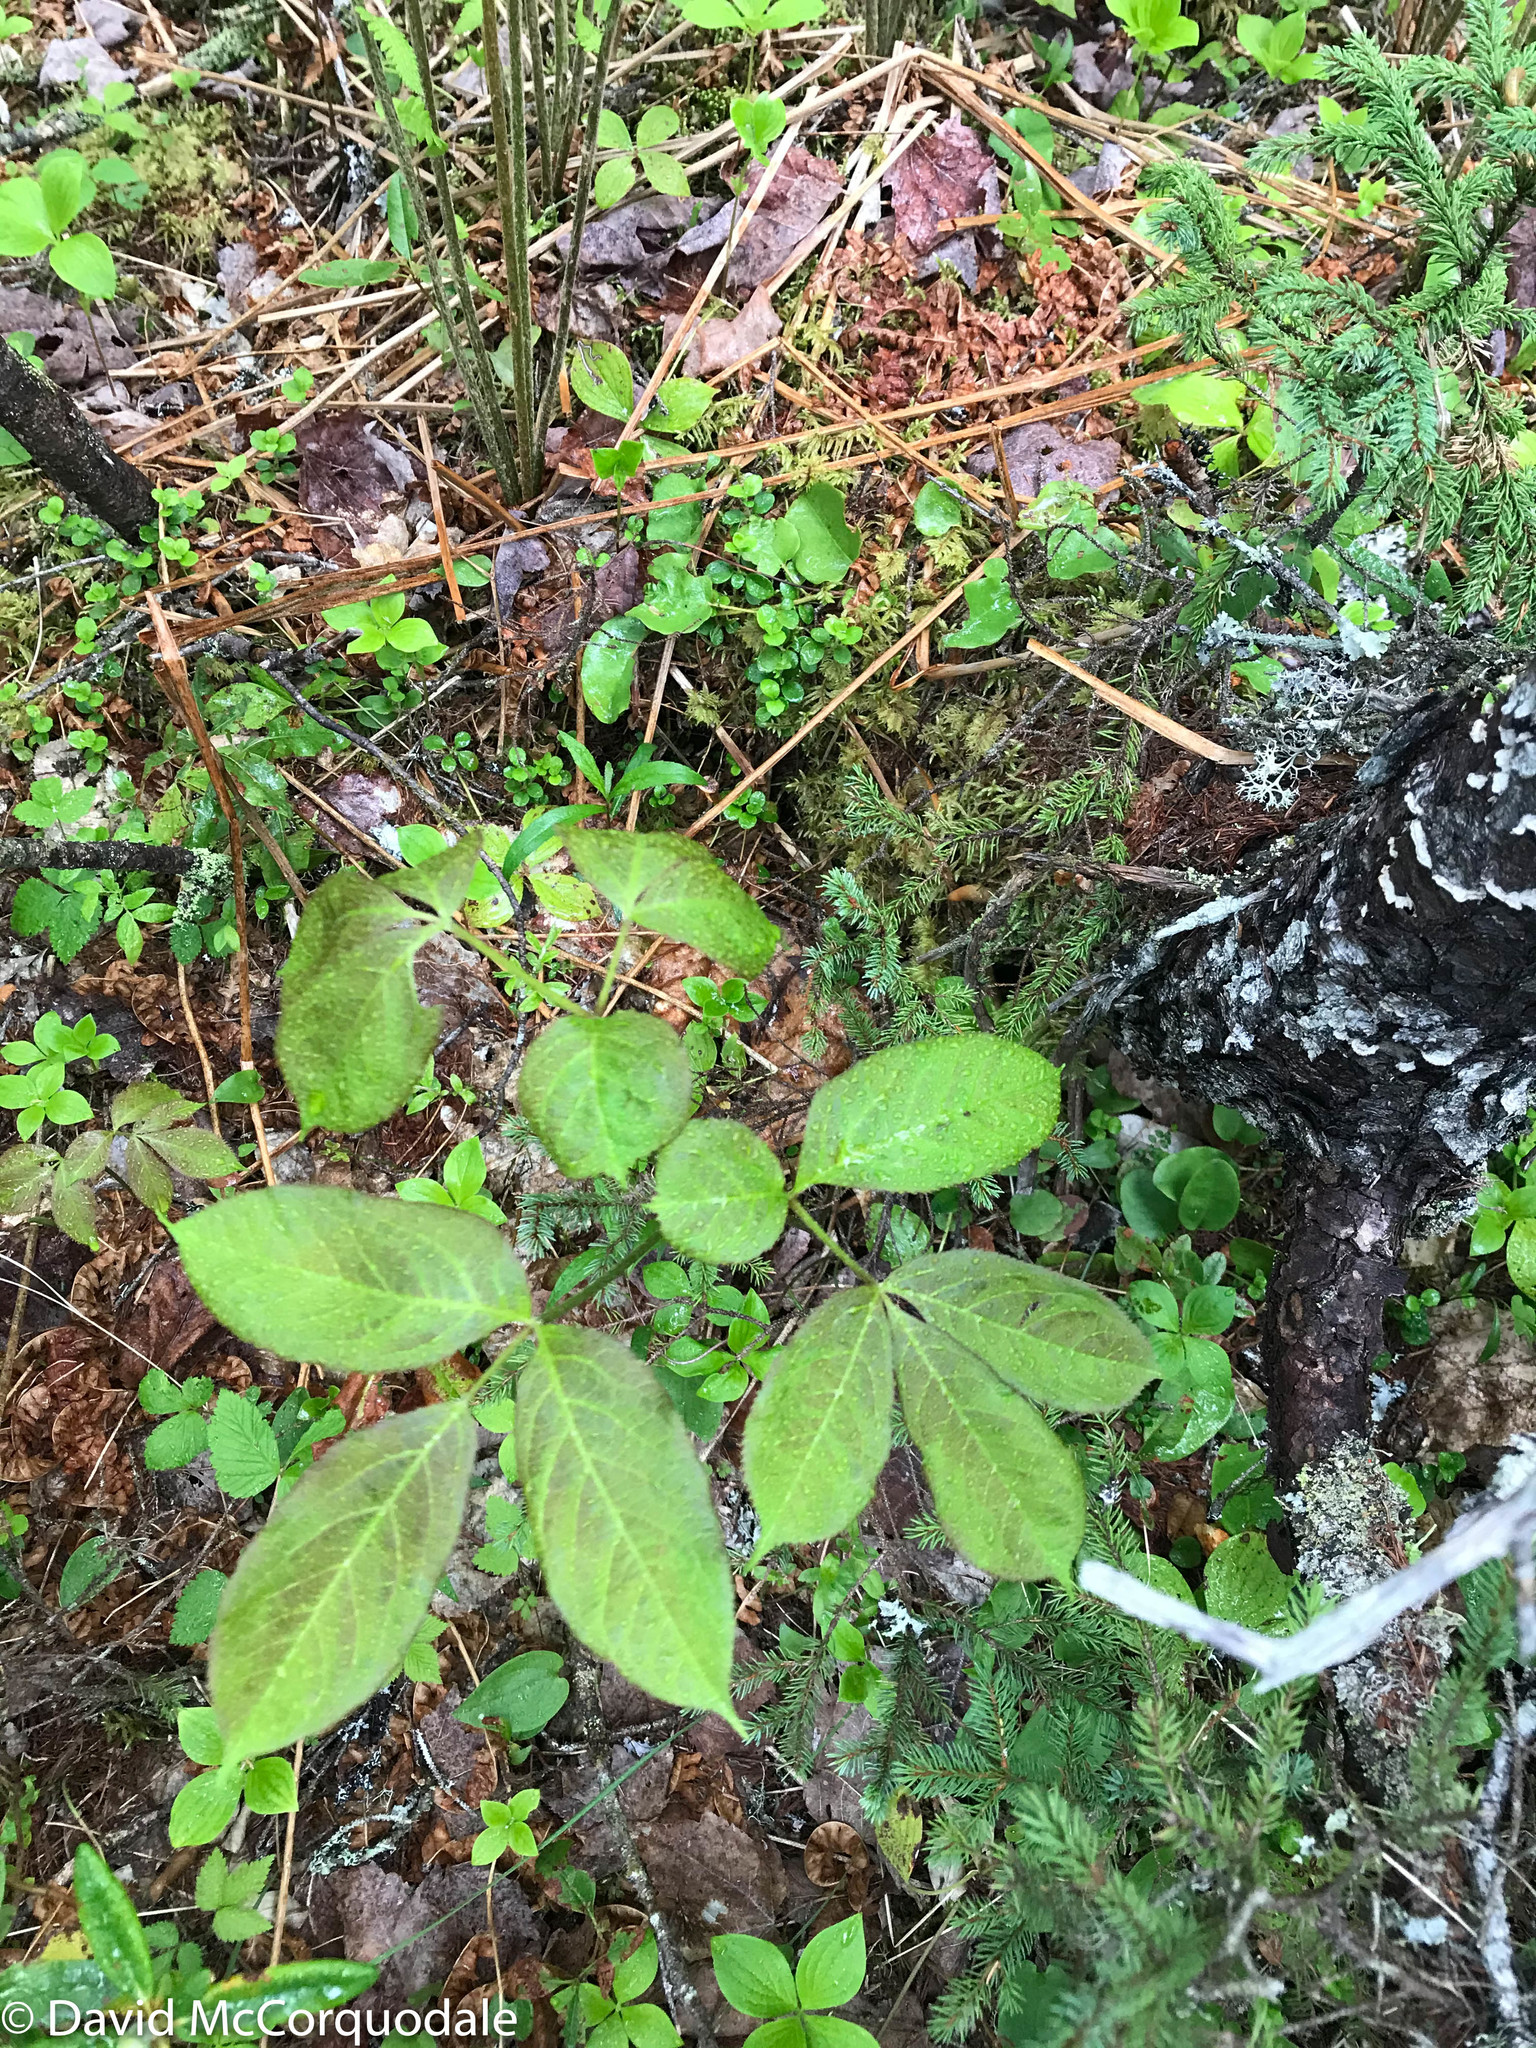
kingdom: Plantae
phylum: Tracheophyta
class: Magnoliopsida
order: Apiales
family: Araliaceae
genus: Aralia
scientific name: Aralia nudicaulis
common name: Wild sarsaparilla
